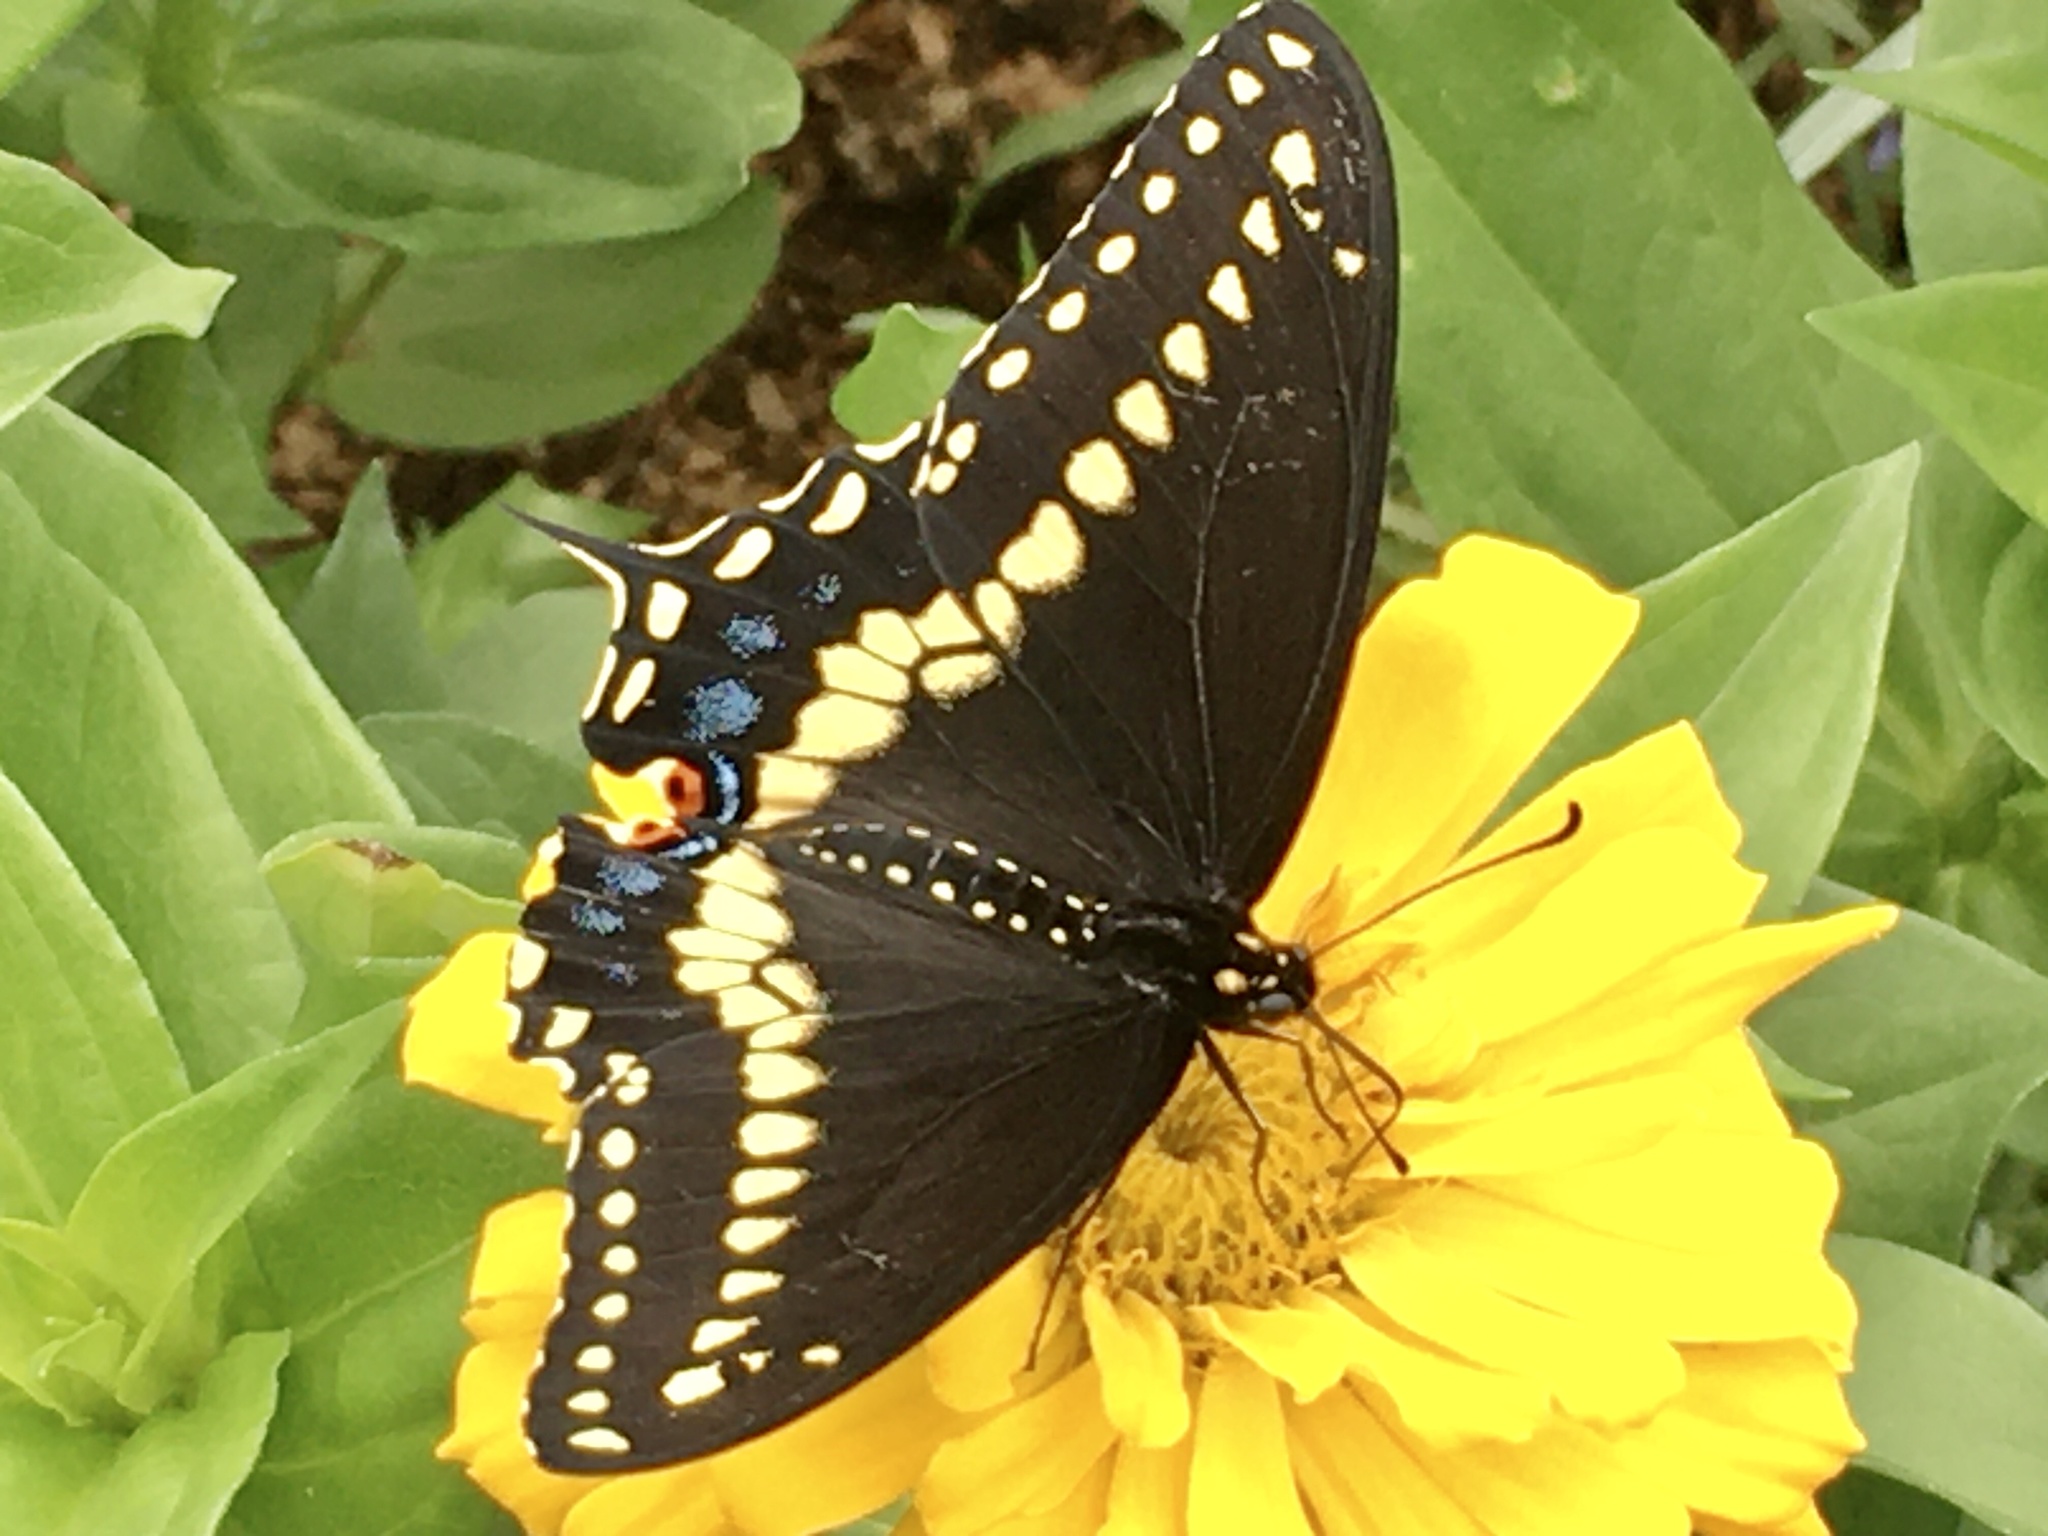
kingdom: Animalia
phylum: Arthropoda
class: Insecta
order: Lepidoptera
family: Papilionidae
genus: Papilio
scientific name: Papilio polyxenes
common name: Black swallowtail
